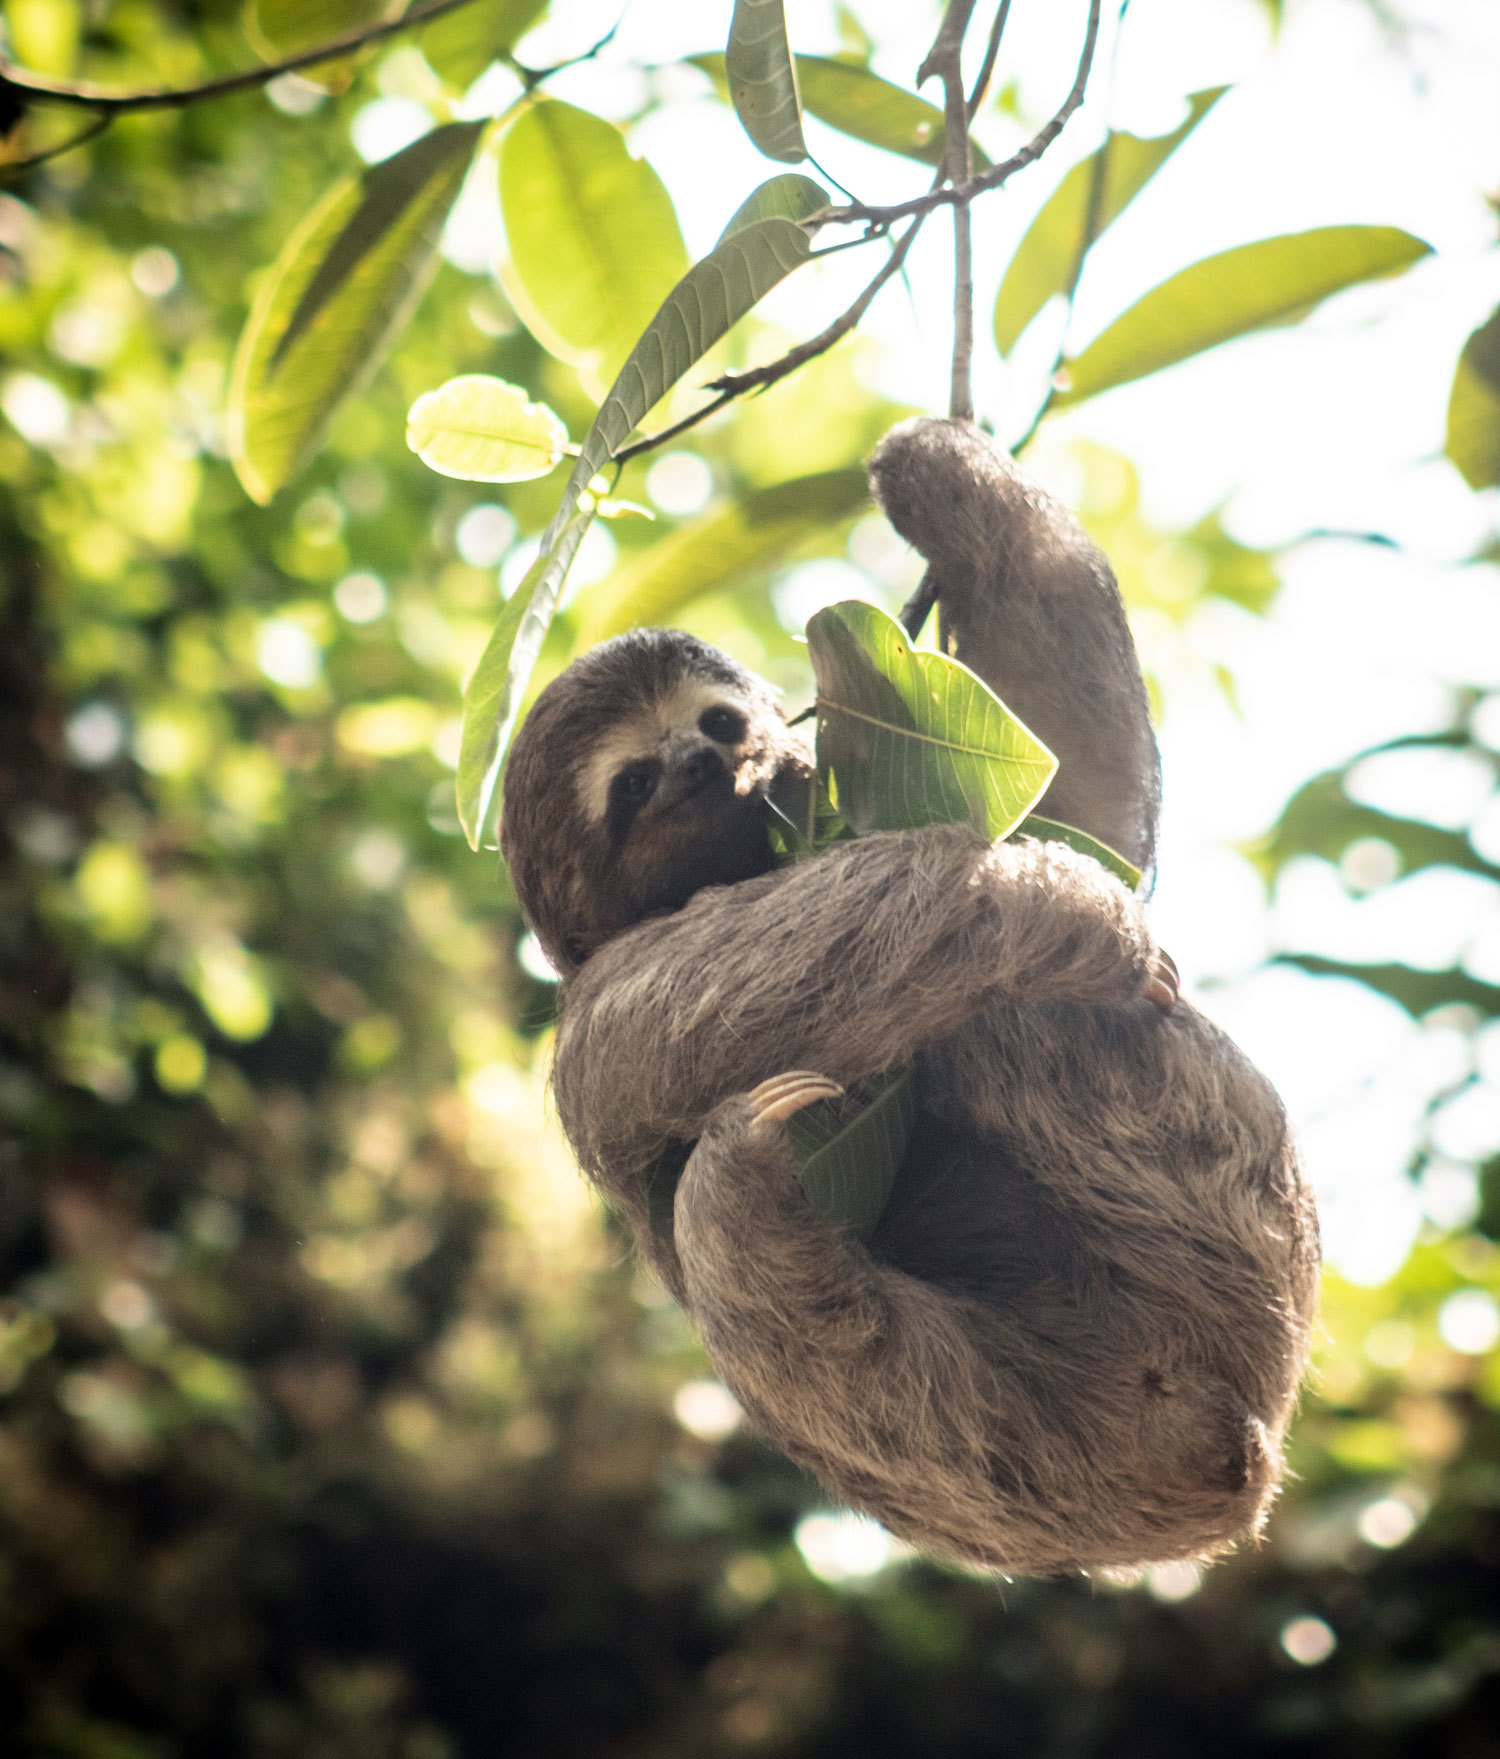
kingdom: Animalia
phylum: Chordata
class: Mammalia
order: Pilosa
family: Bradypodidae
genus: Bradypus
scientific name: Bradypus variegatus
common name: Brown-throated three-toed sloth
